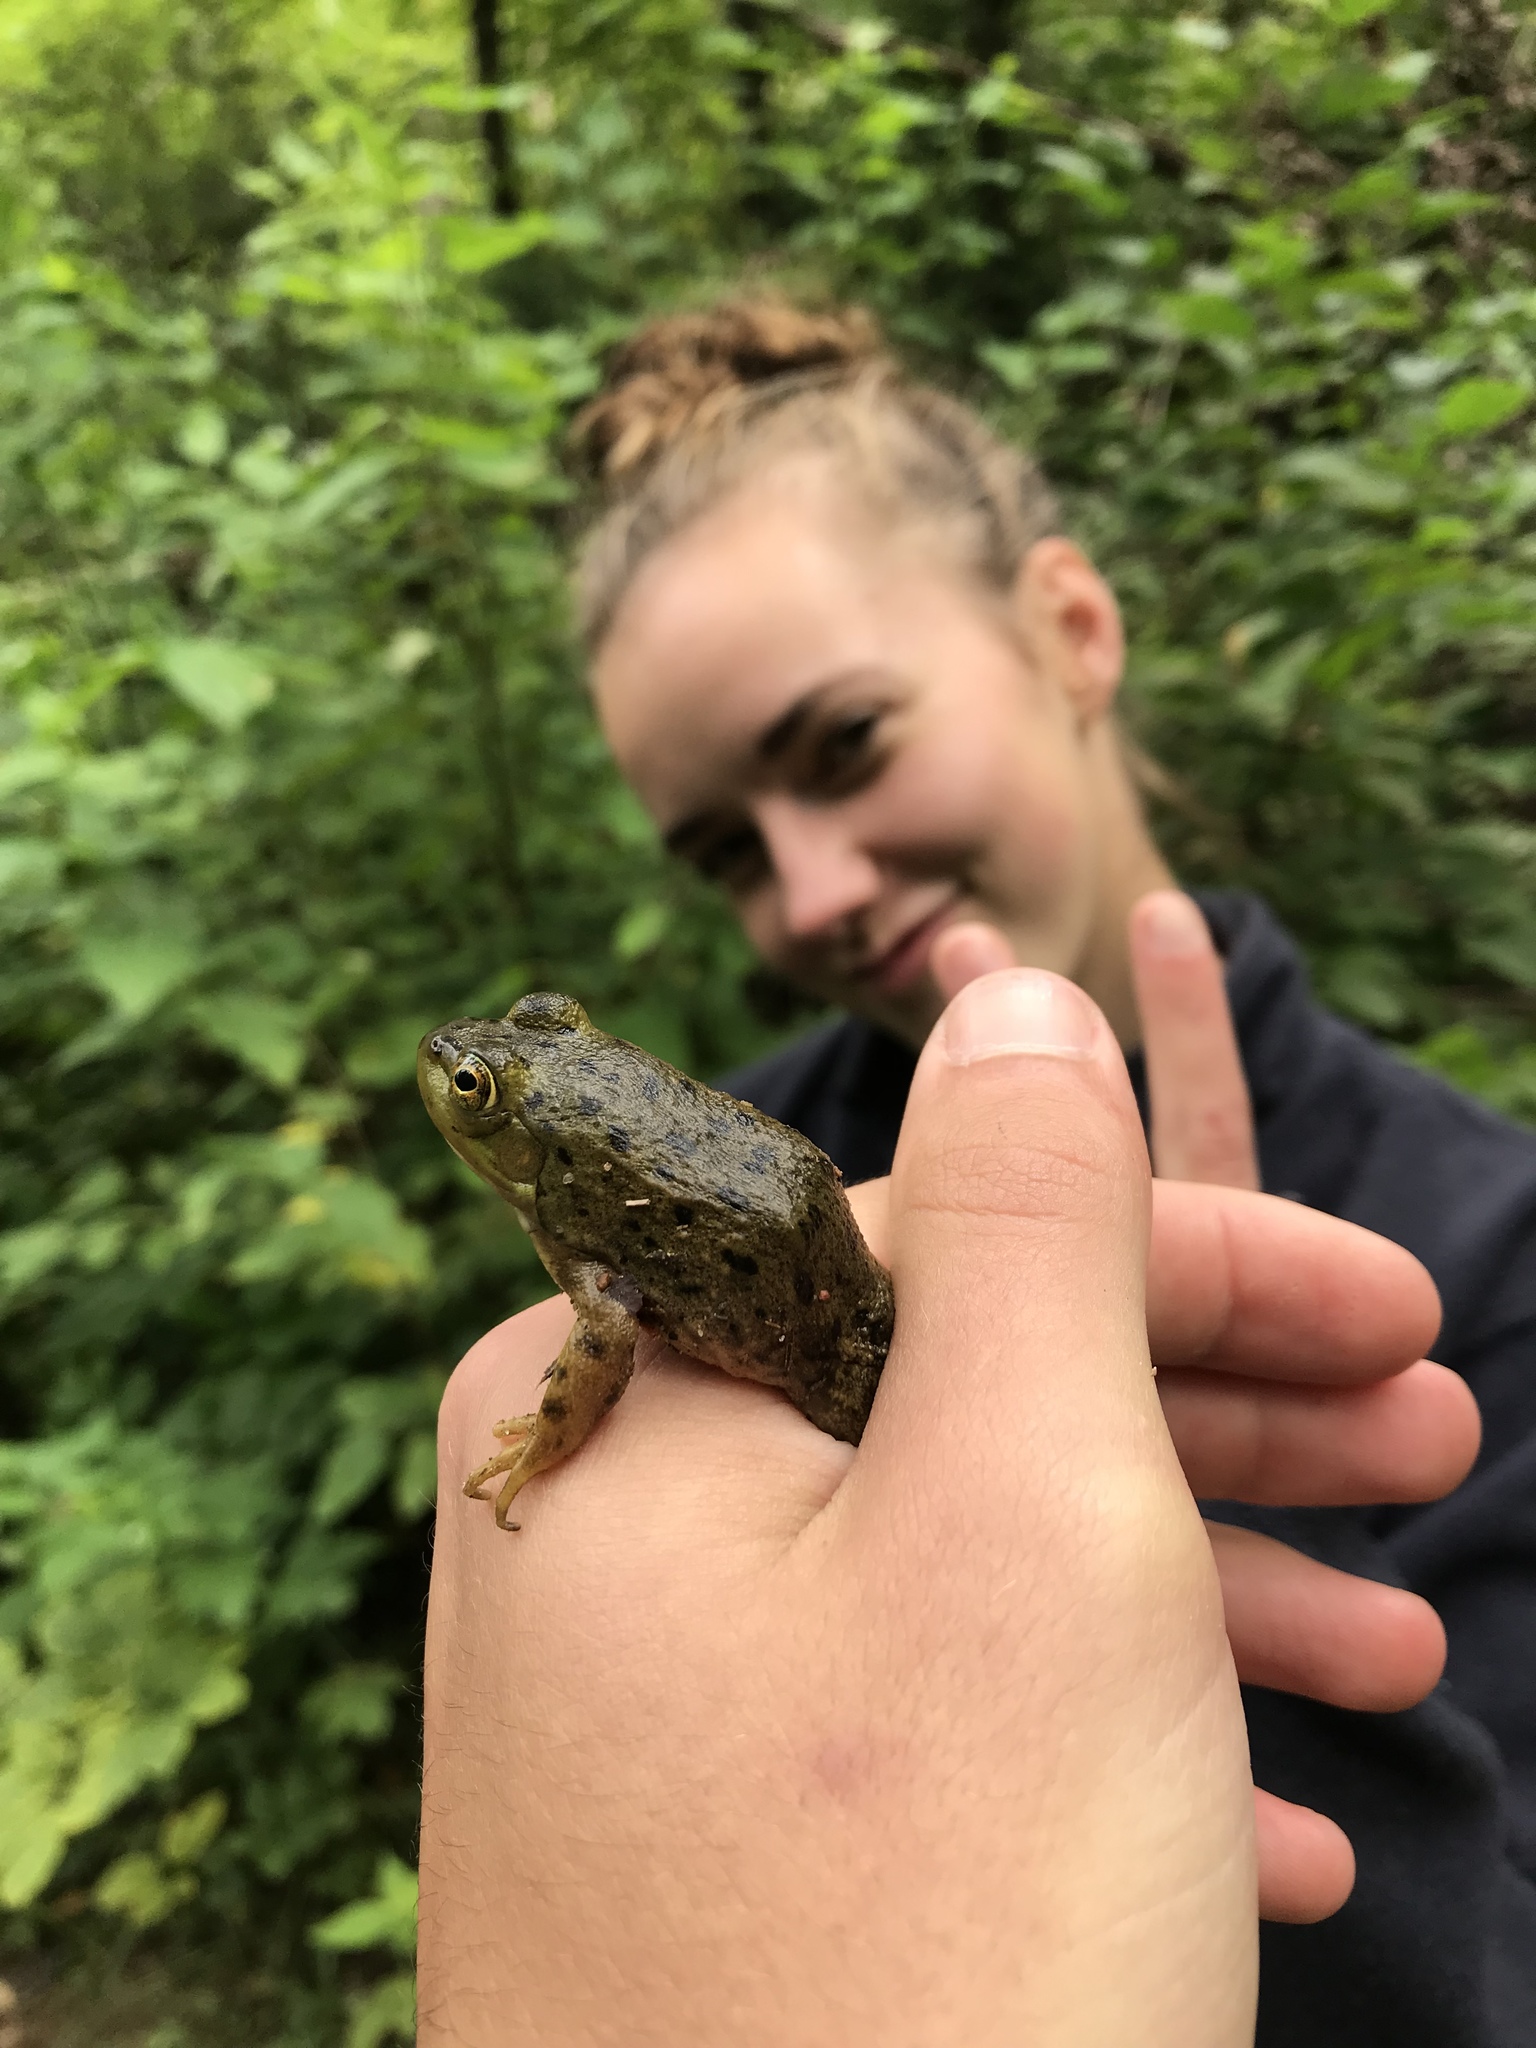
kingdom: Animalia
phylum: Chordata
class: Amphibia
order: Anura
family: Ranidae
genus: Lithobates
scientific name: Lithobates catesbeianus
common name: American bullfrog
